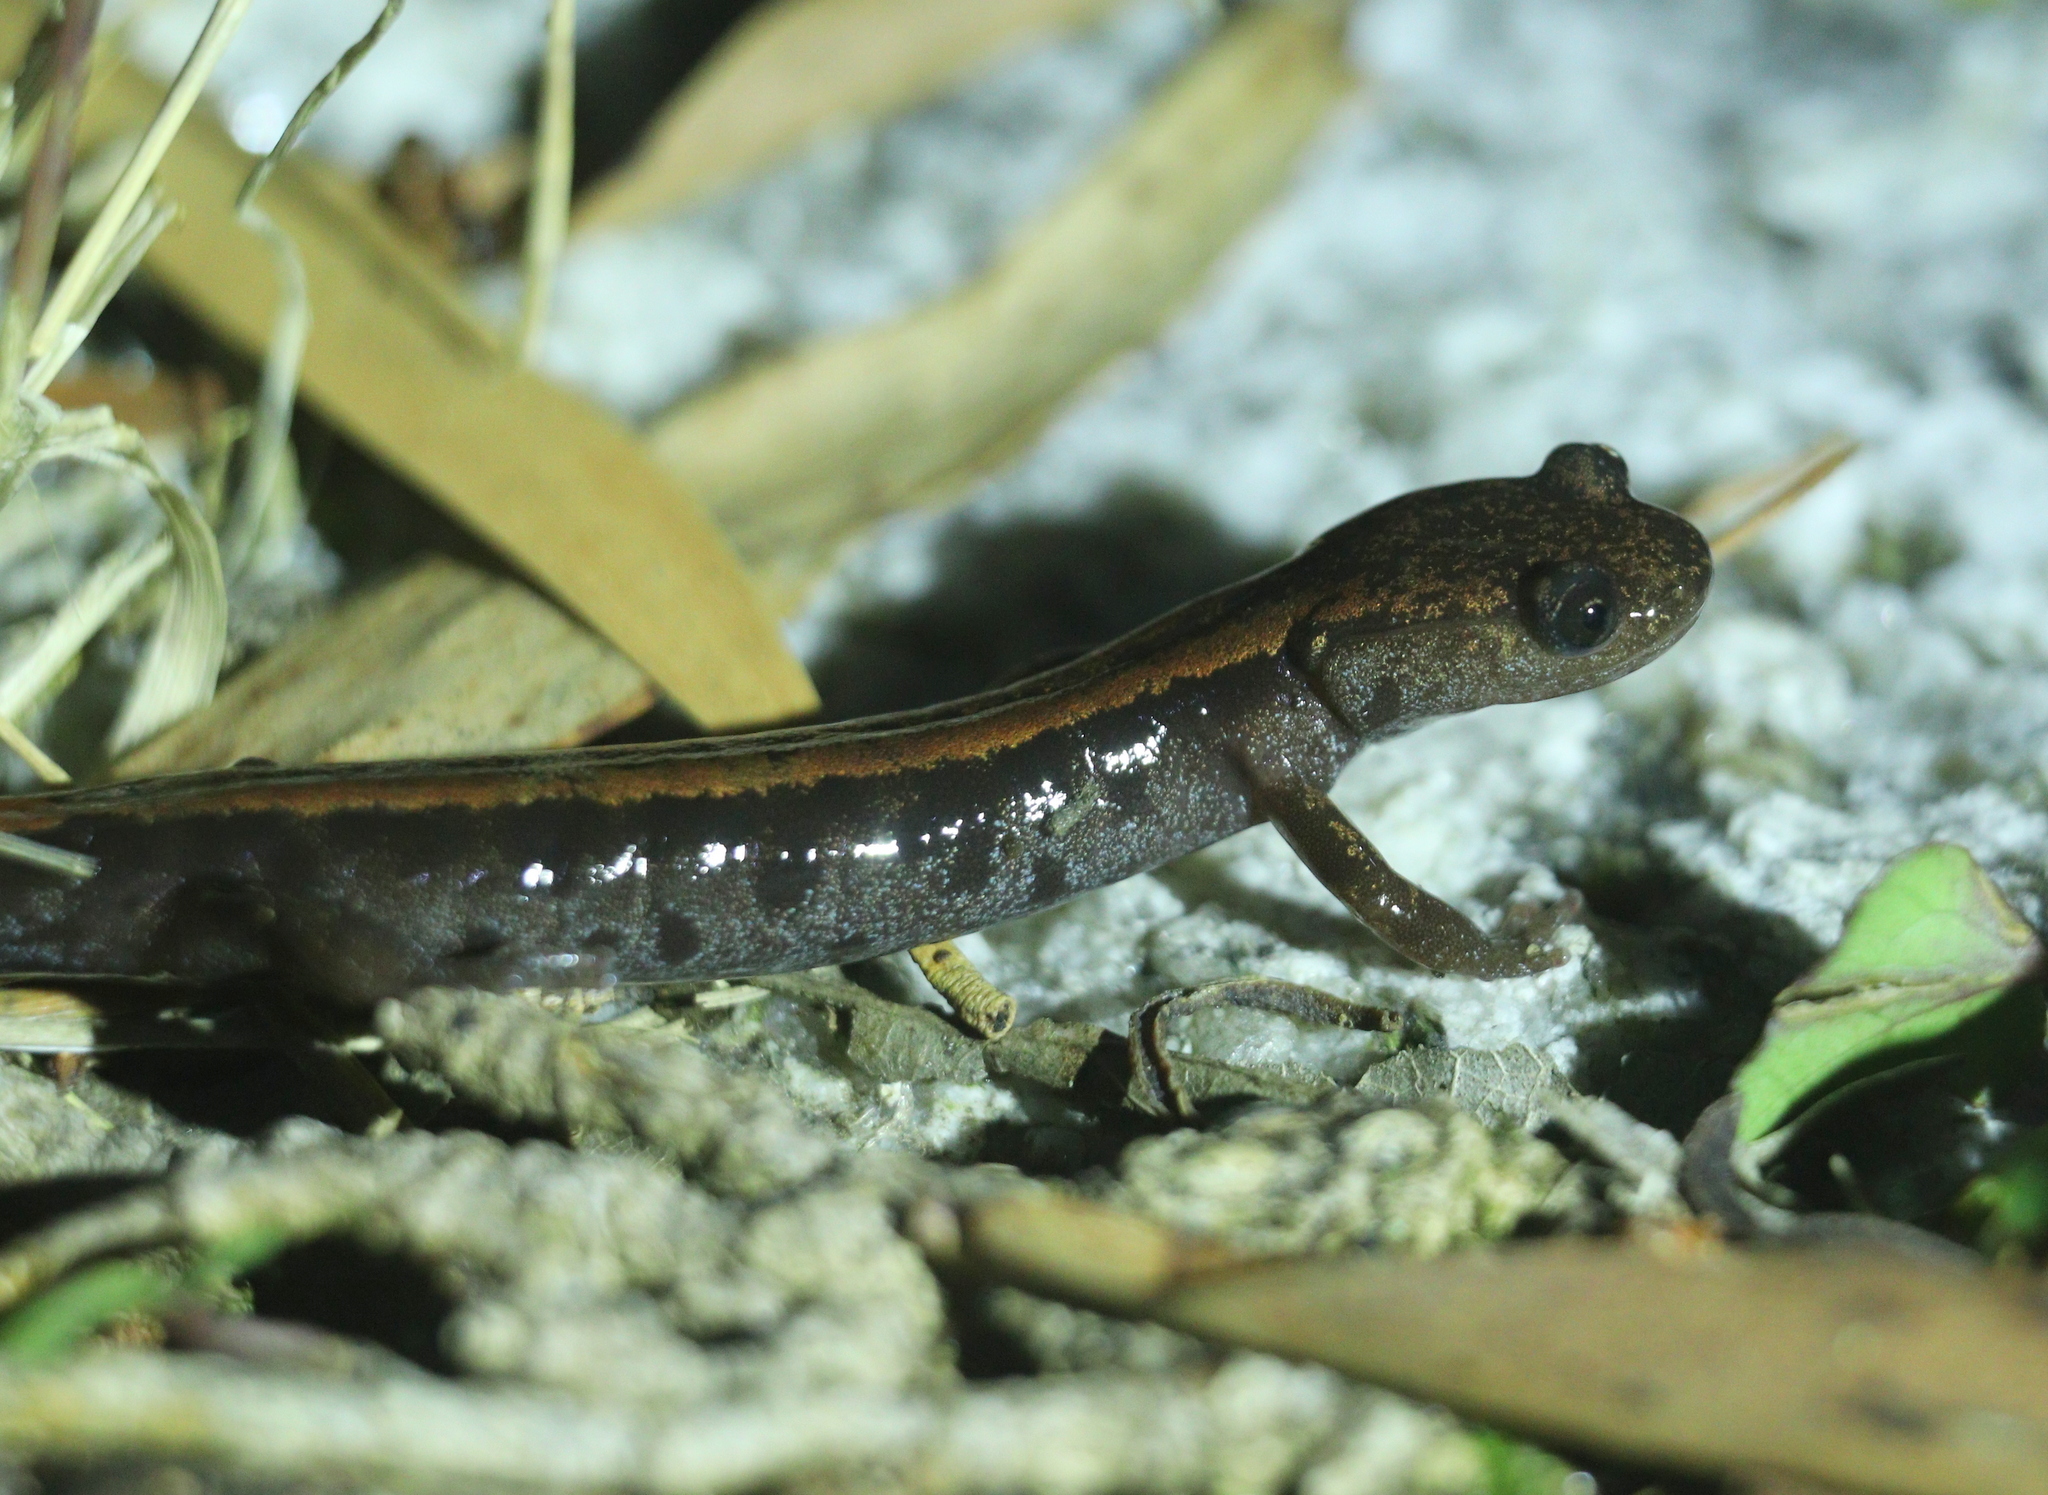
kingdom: Animalia
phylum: Chordata
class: Amphibia
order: Caudata
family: Salamandridae
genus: Chioglossa
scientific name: Chioglossa lusitanica
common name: Gold-striped salamander
